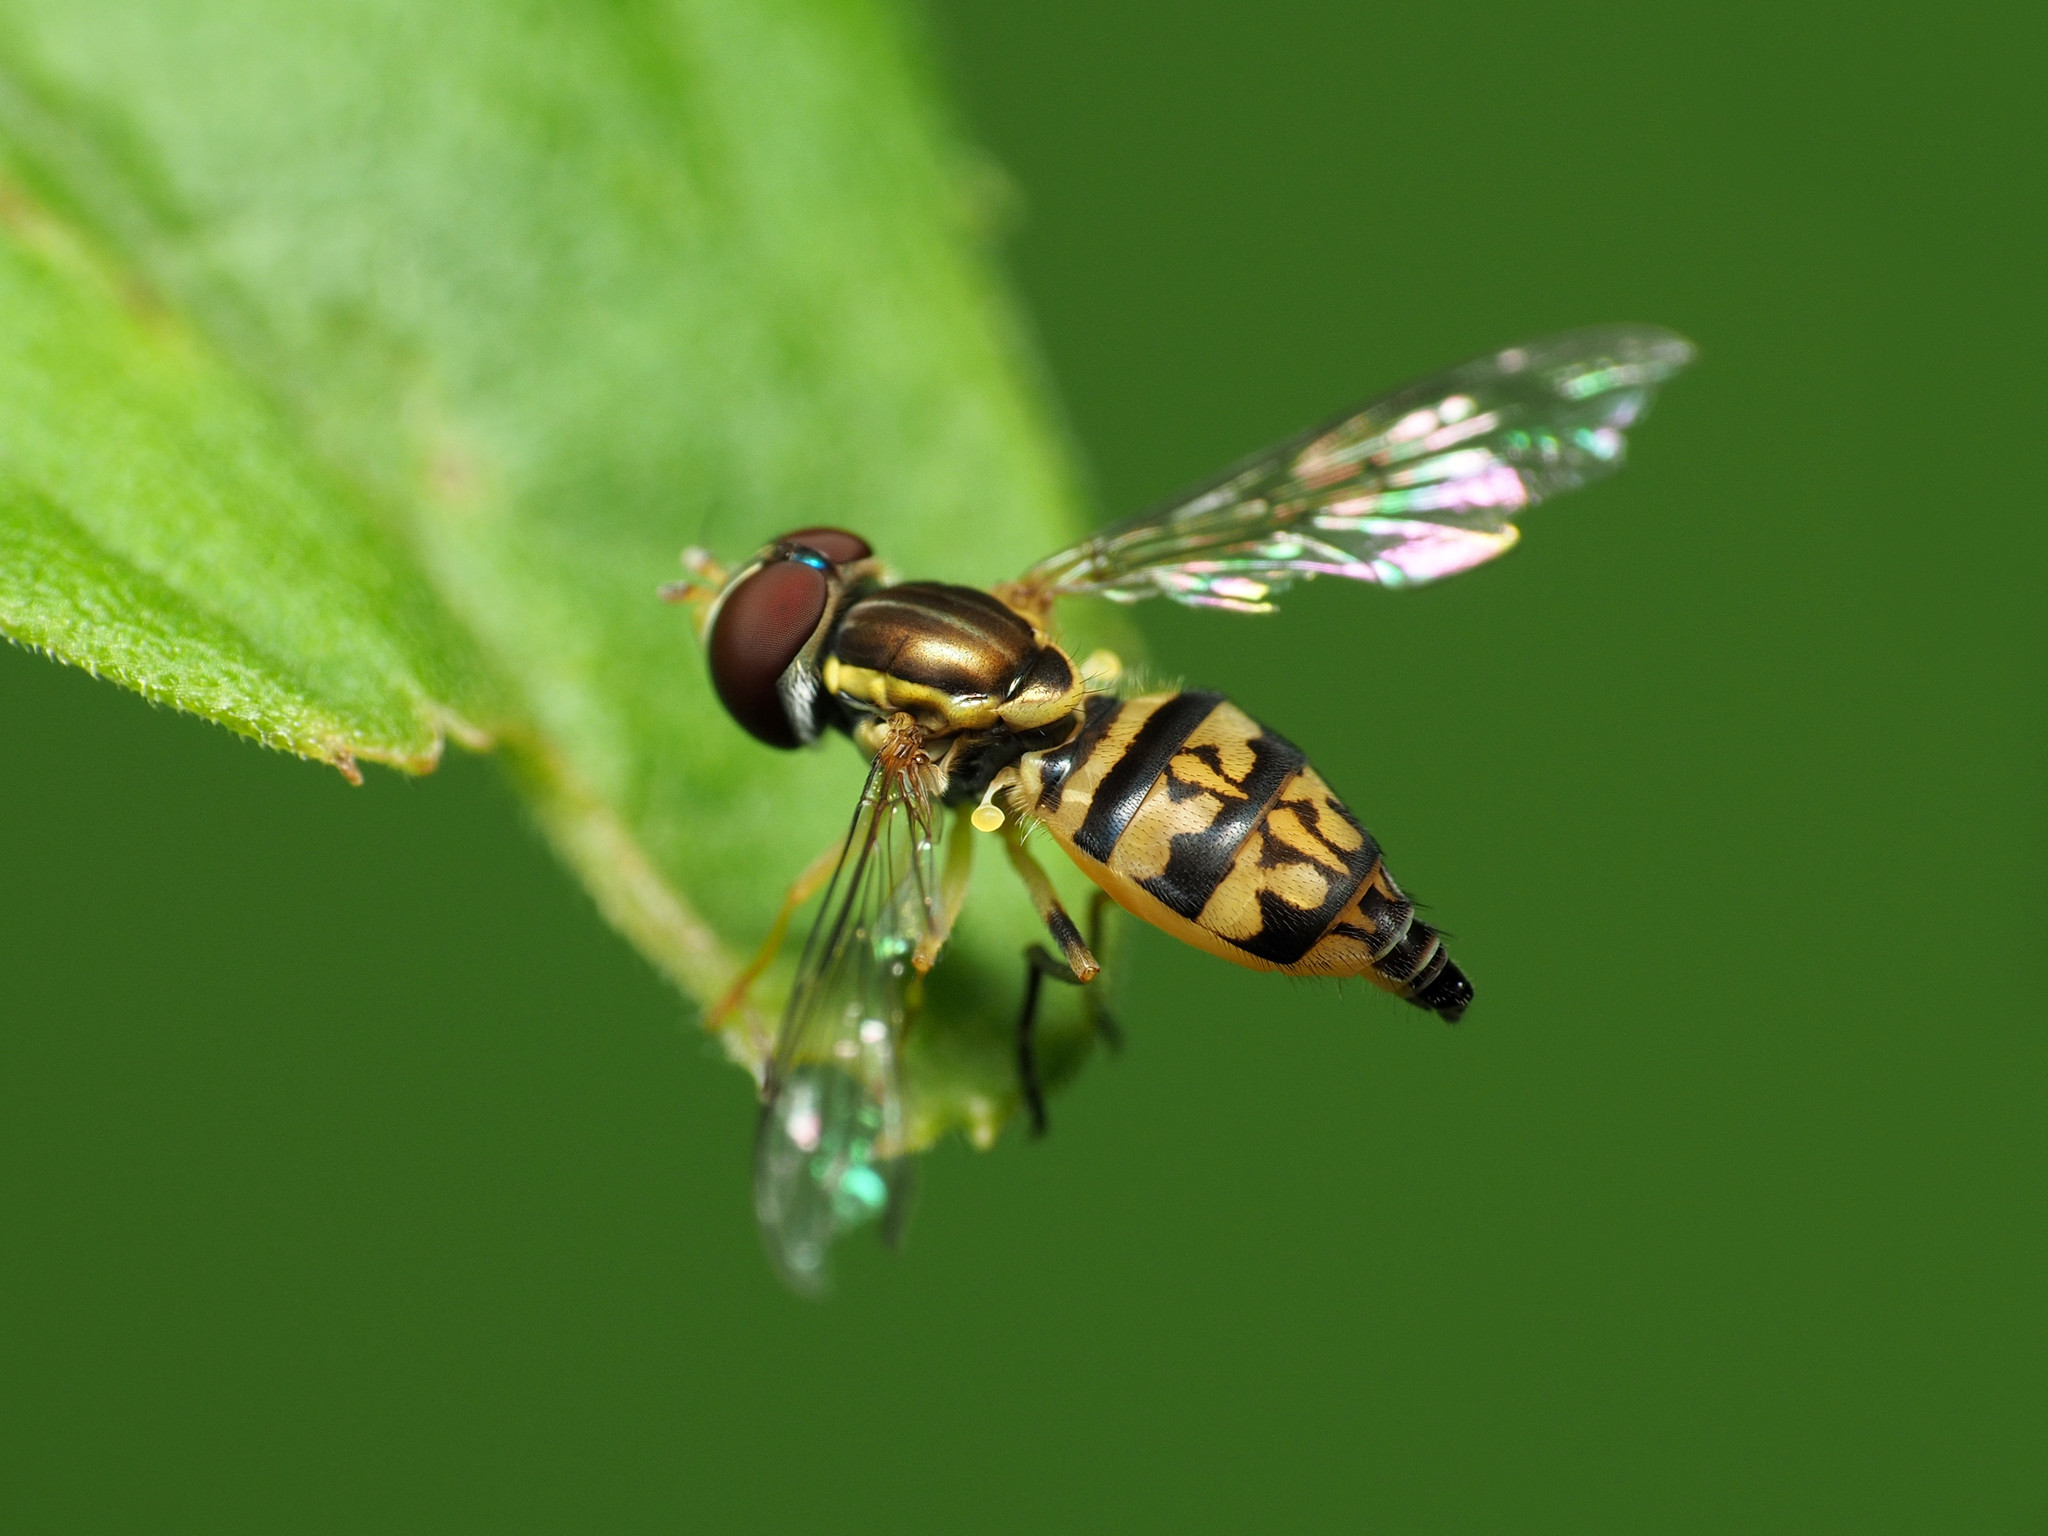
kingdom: Animalia
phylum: Arthropoda
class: Insecta
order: Diptera
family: Syrphidae
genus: Toxomerus
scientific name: Toxomerus geminatus
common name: Eastern calligrapher
